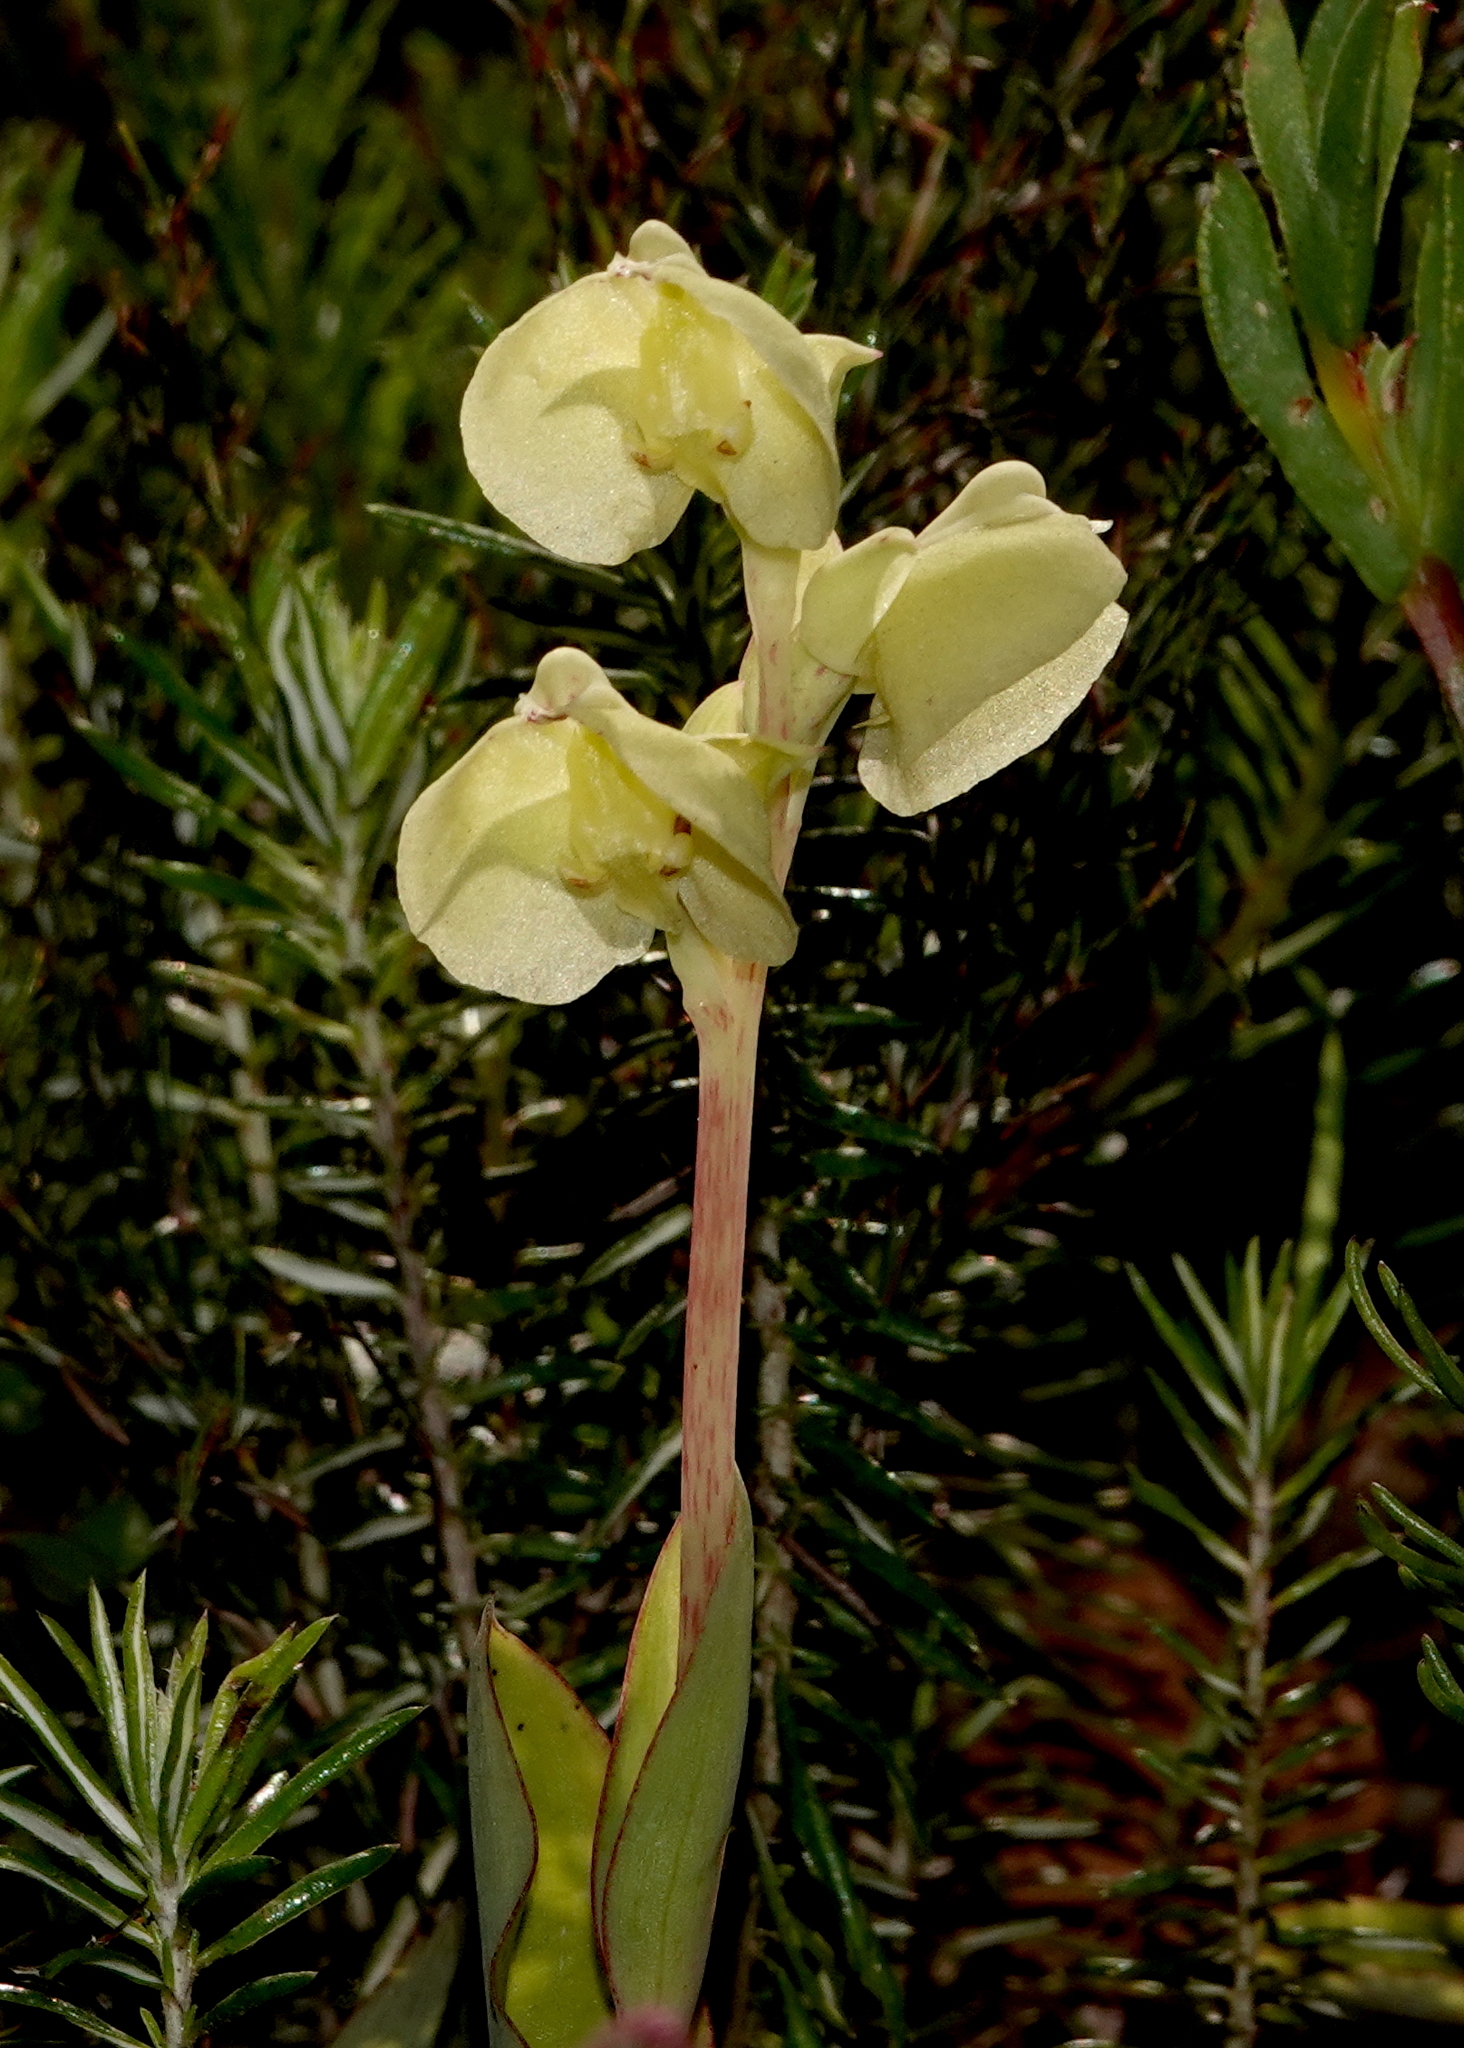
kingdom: Plantae
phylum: Tracheophyta
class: Liliopsida
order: Asparagales
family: Orchidaceae
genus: Pterygodium
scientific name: Pterygodium catholicum
